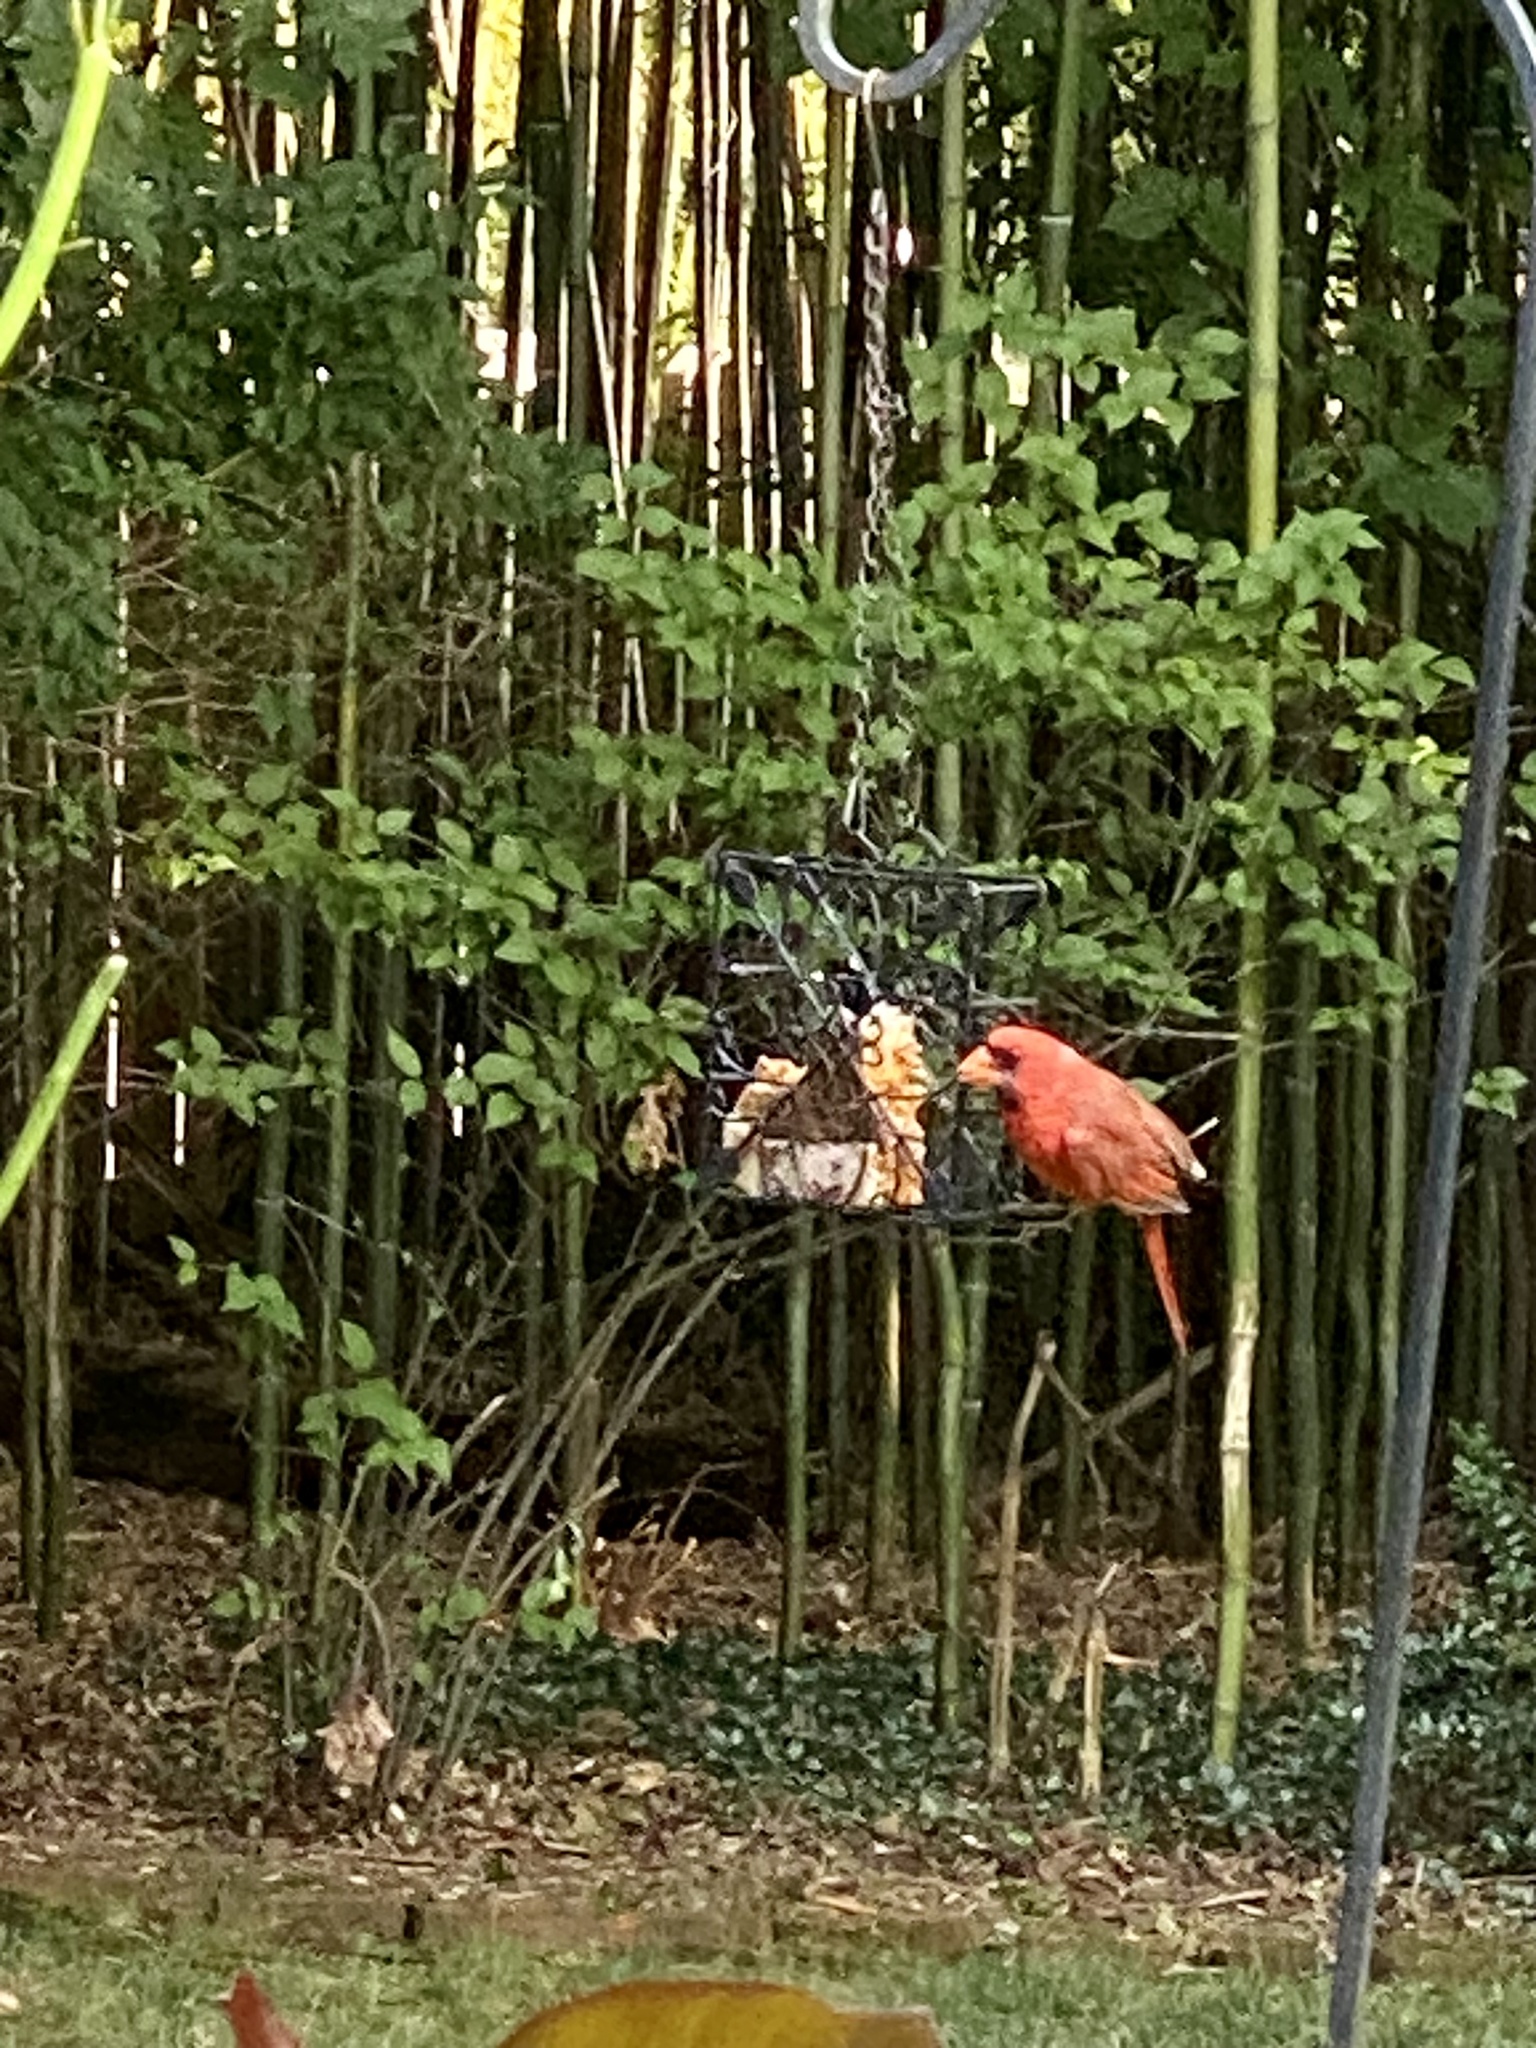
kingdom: Animalia
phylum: Chordata
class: Aves
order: Passeriformes
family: Cardinalidae
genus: Cardinalis
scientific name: Cardinalis cardinalis
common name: Northern cardinal
